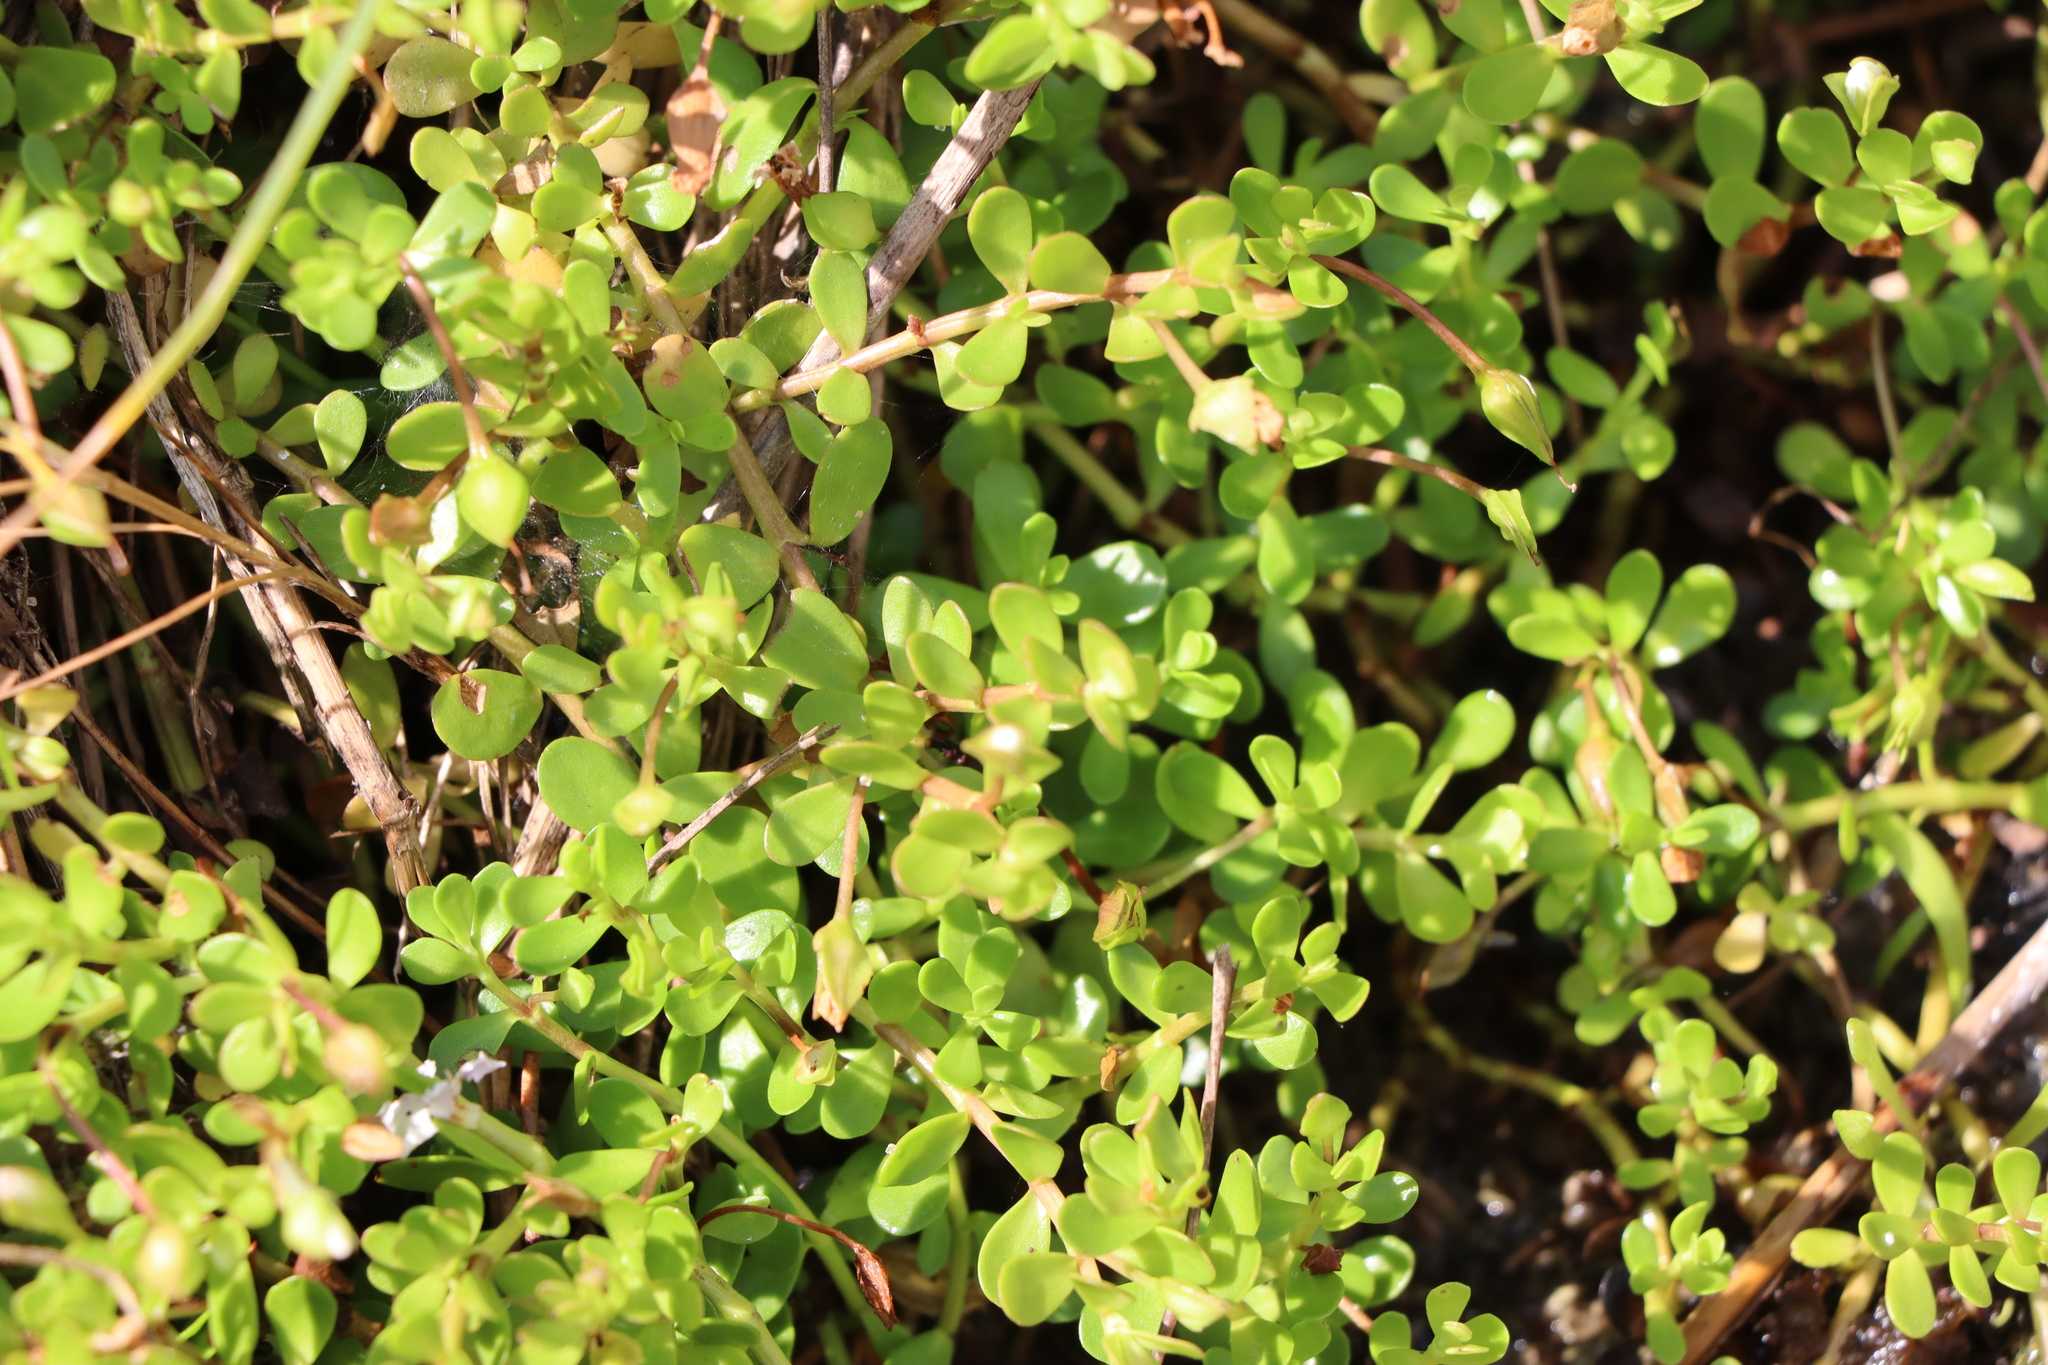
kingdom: Plantae
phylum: Tracheophyta
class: Magnoliopsida
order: Lamiales
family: Plantaginaceae
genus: Bacopa
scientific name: Bacopa monnieri
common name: Indian-pennywort
